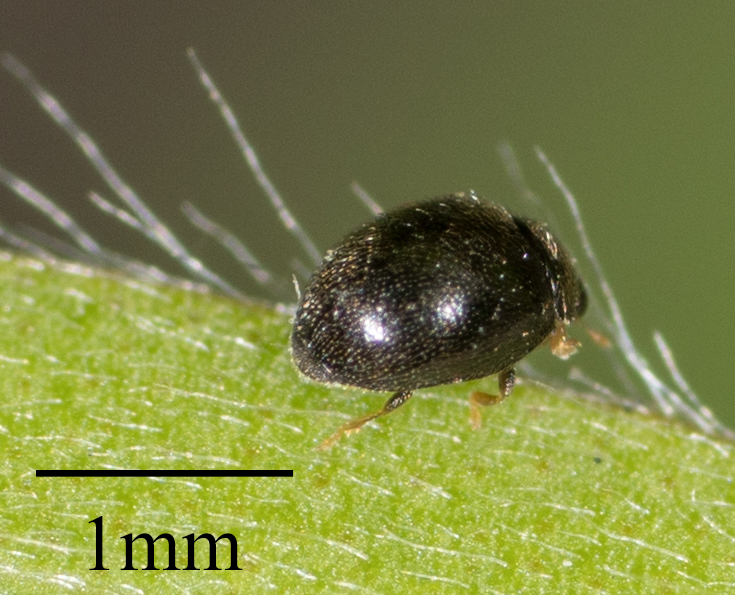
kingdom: Animalia
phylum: Arthropoda
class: Insecta
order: Coleoptera
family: Coccinellidae
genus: Stethorus
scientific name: Stethorus punctum
